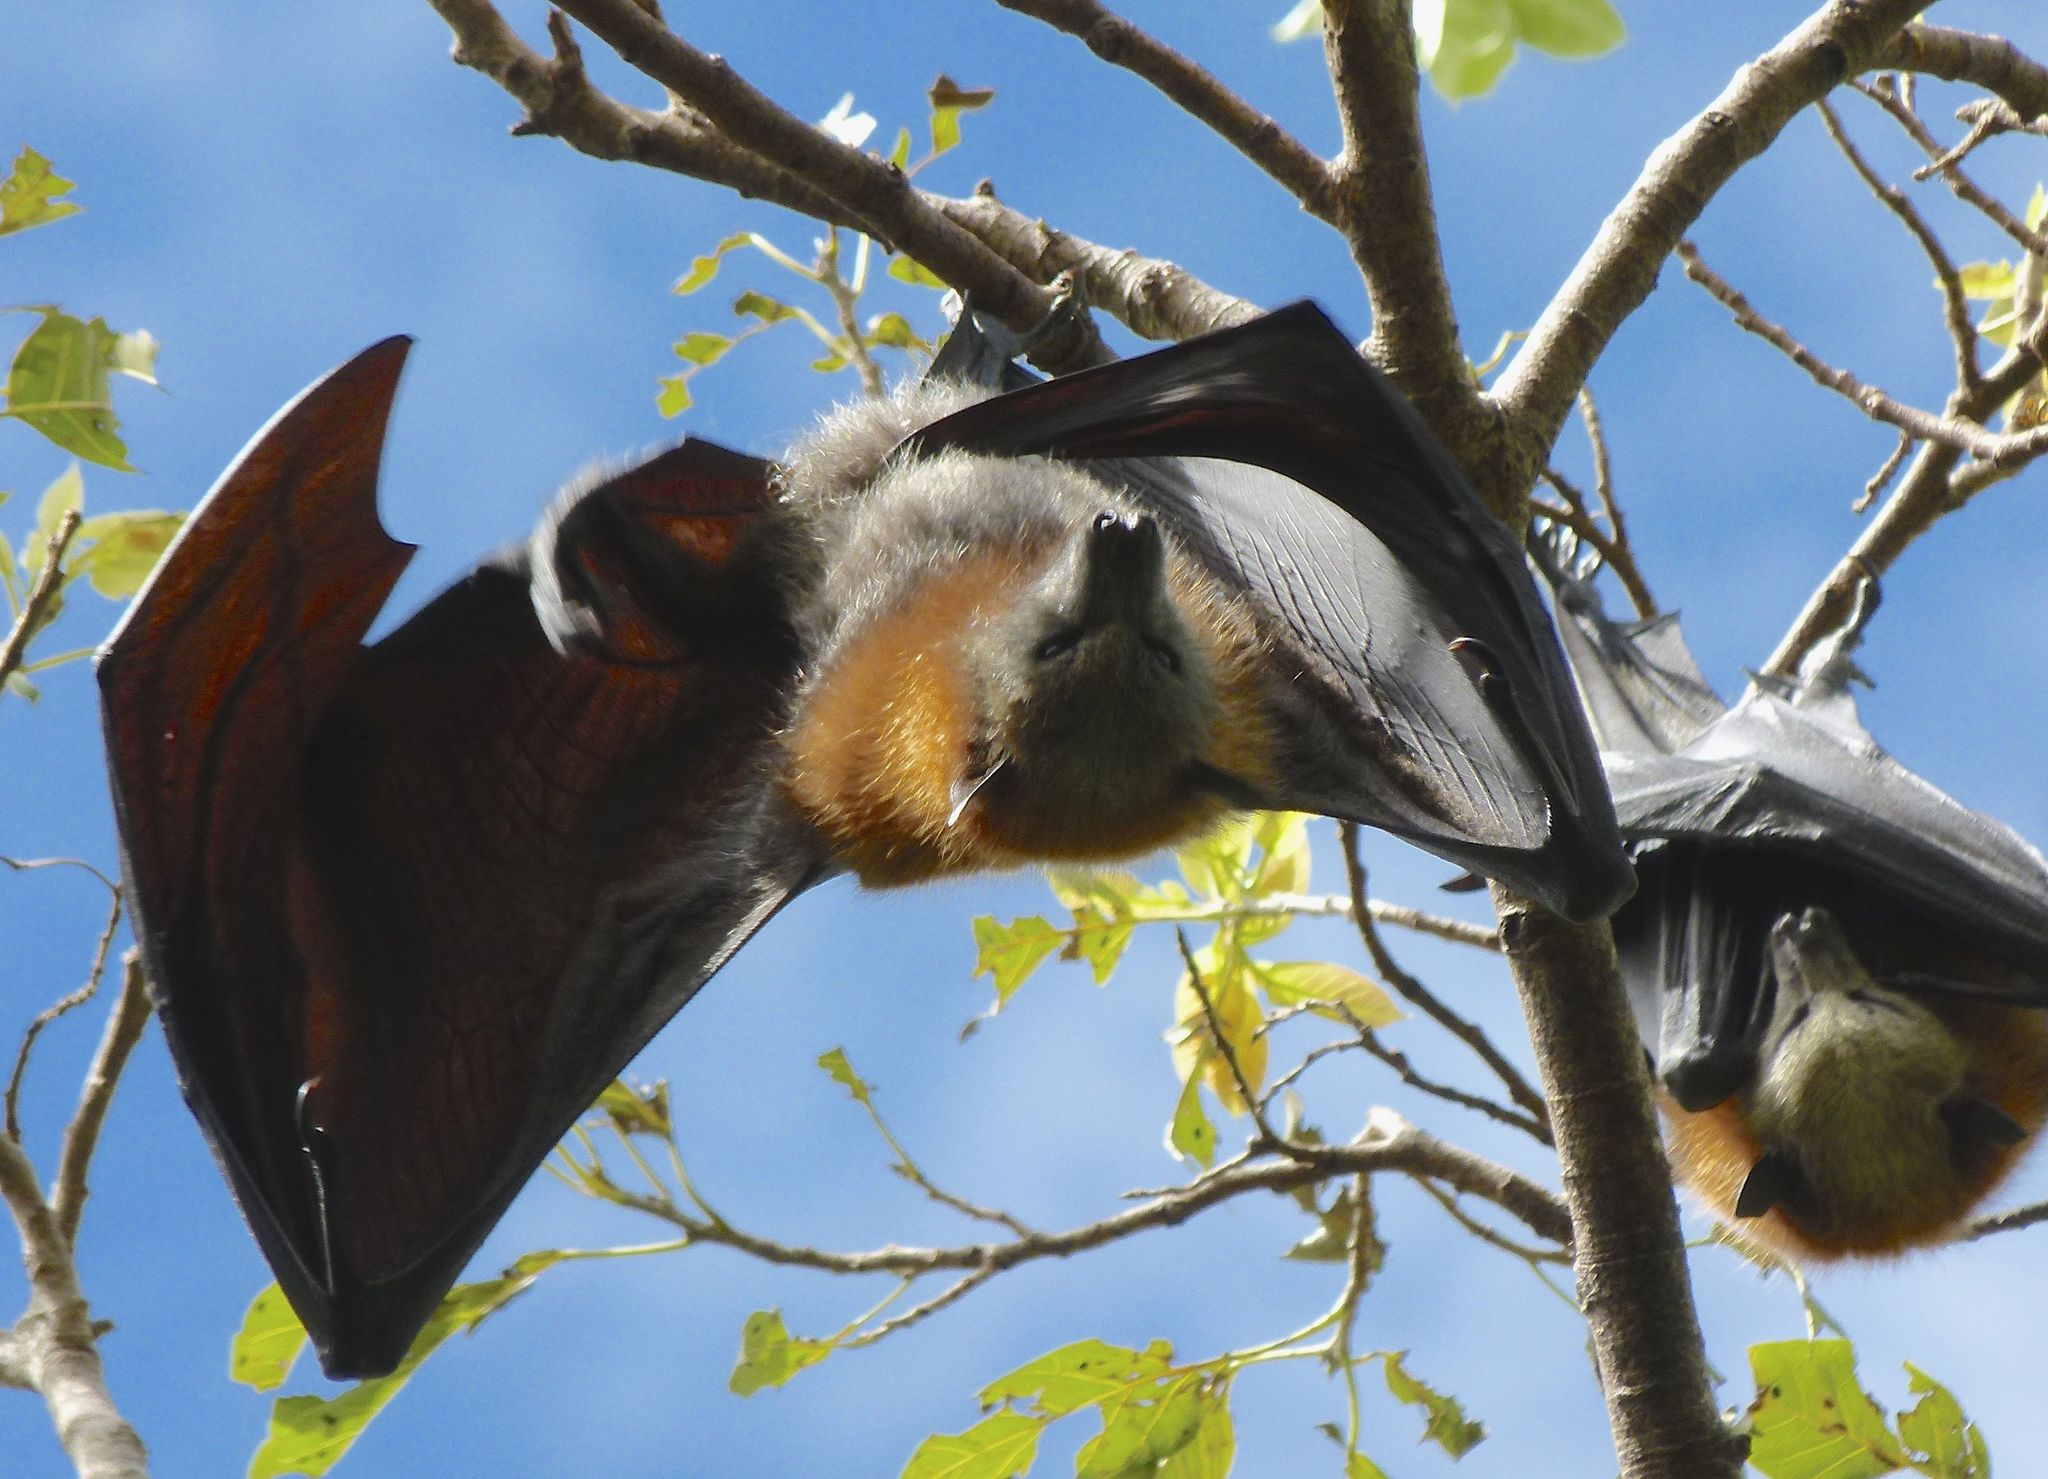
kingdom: Animalia
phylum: Chordata
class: Mammalia
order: Chiroptera
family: Pteropodidae
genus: Pteropus
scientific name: Pteropus poliocephalus
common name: Gray-headed flying fox
